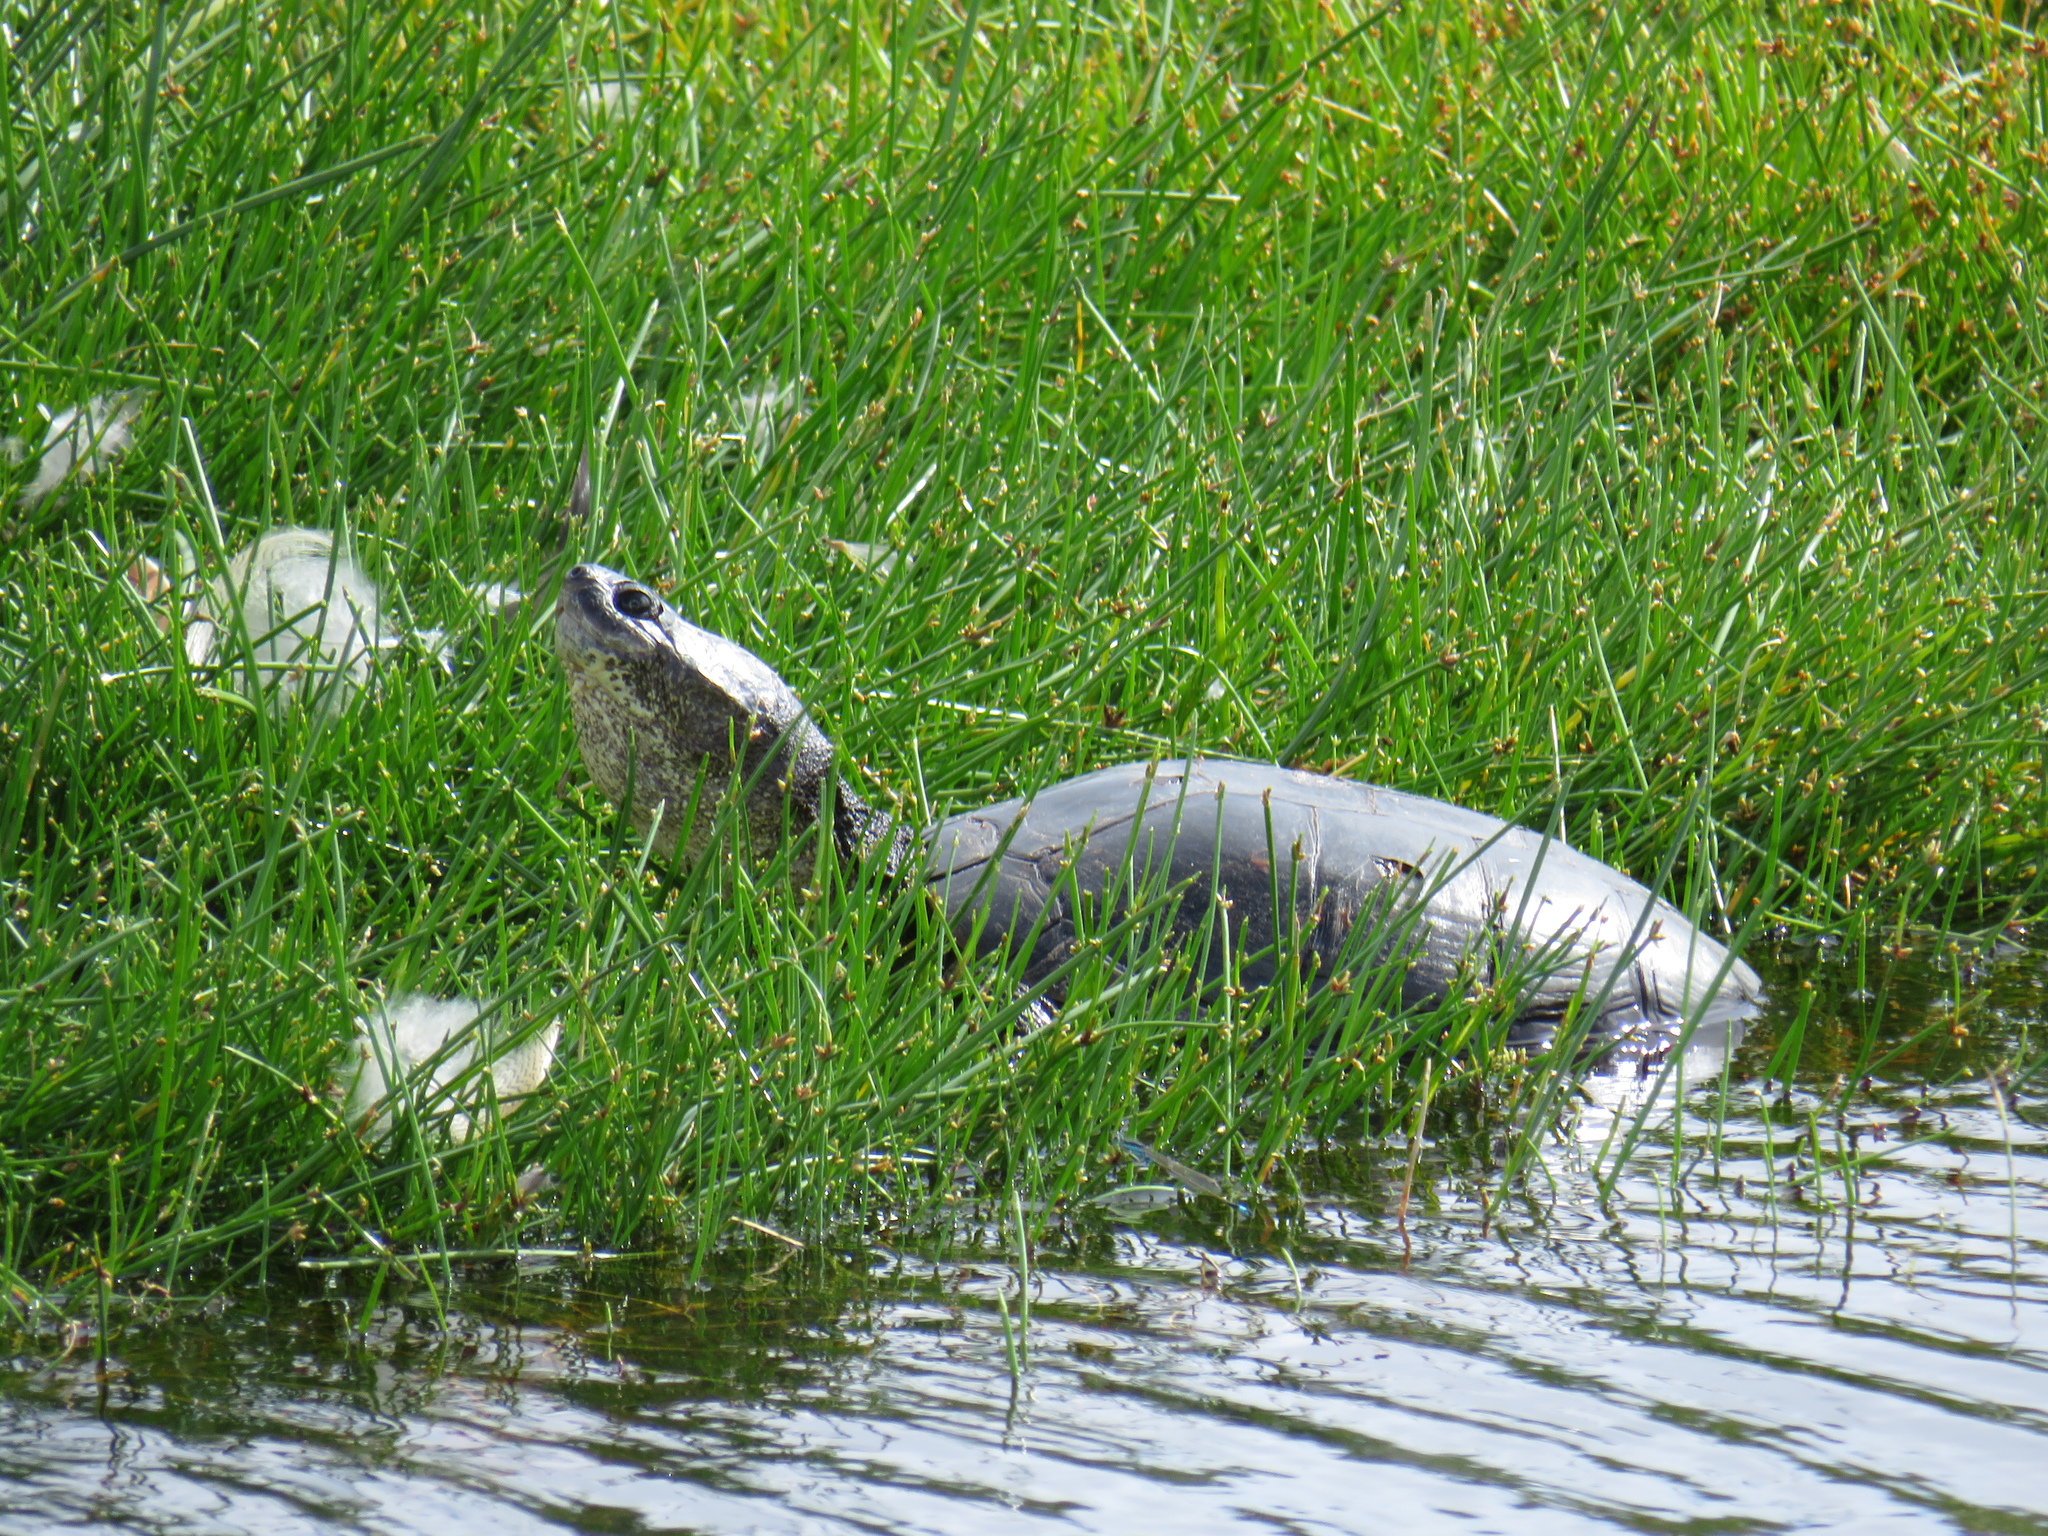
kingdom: Animalia
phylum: Chordata
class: Testudines
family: Pelomedusidae
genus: Pelomedusa
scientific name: Pelomedusa galeata
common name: South african helmeted terrapin
